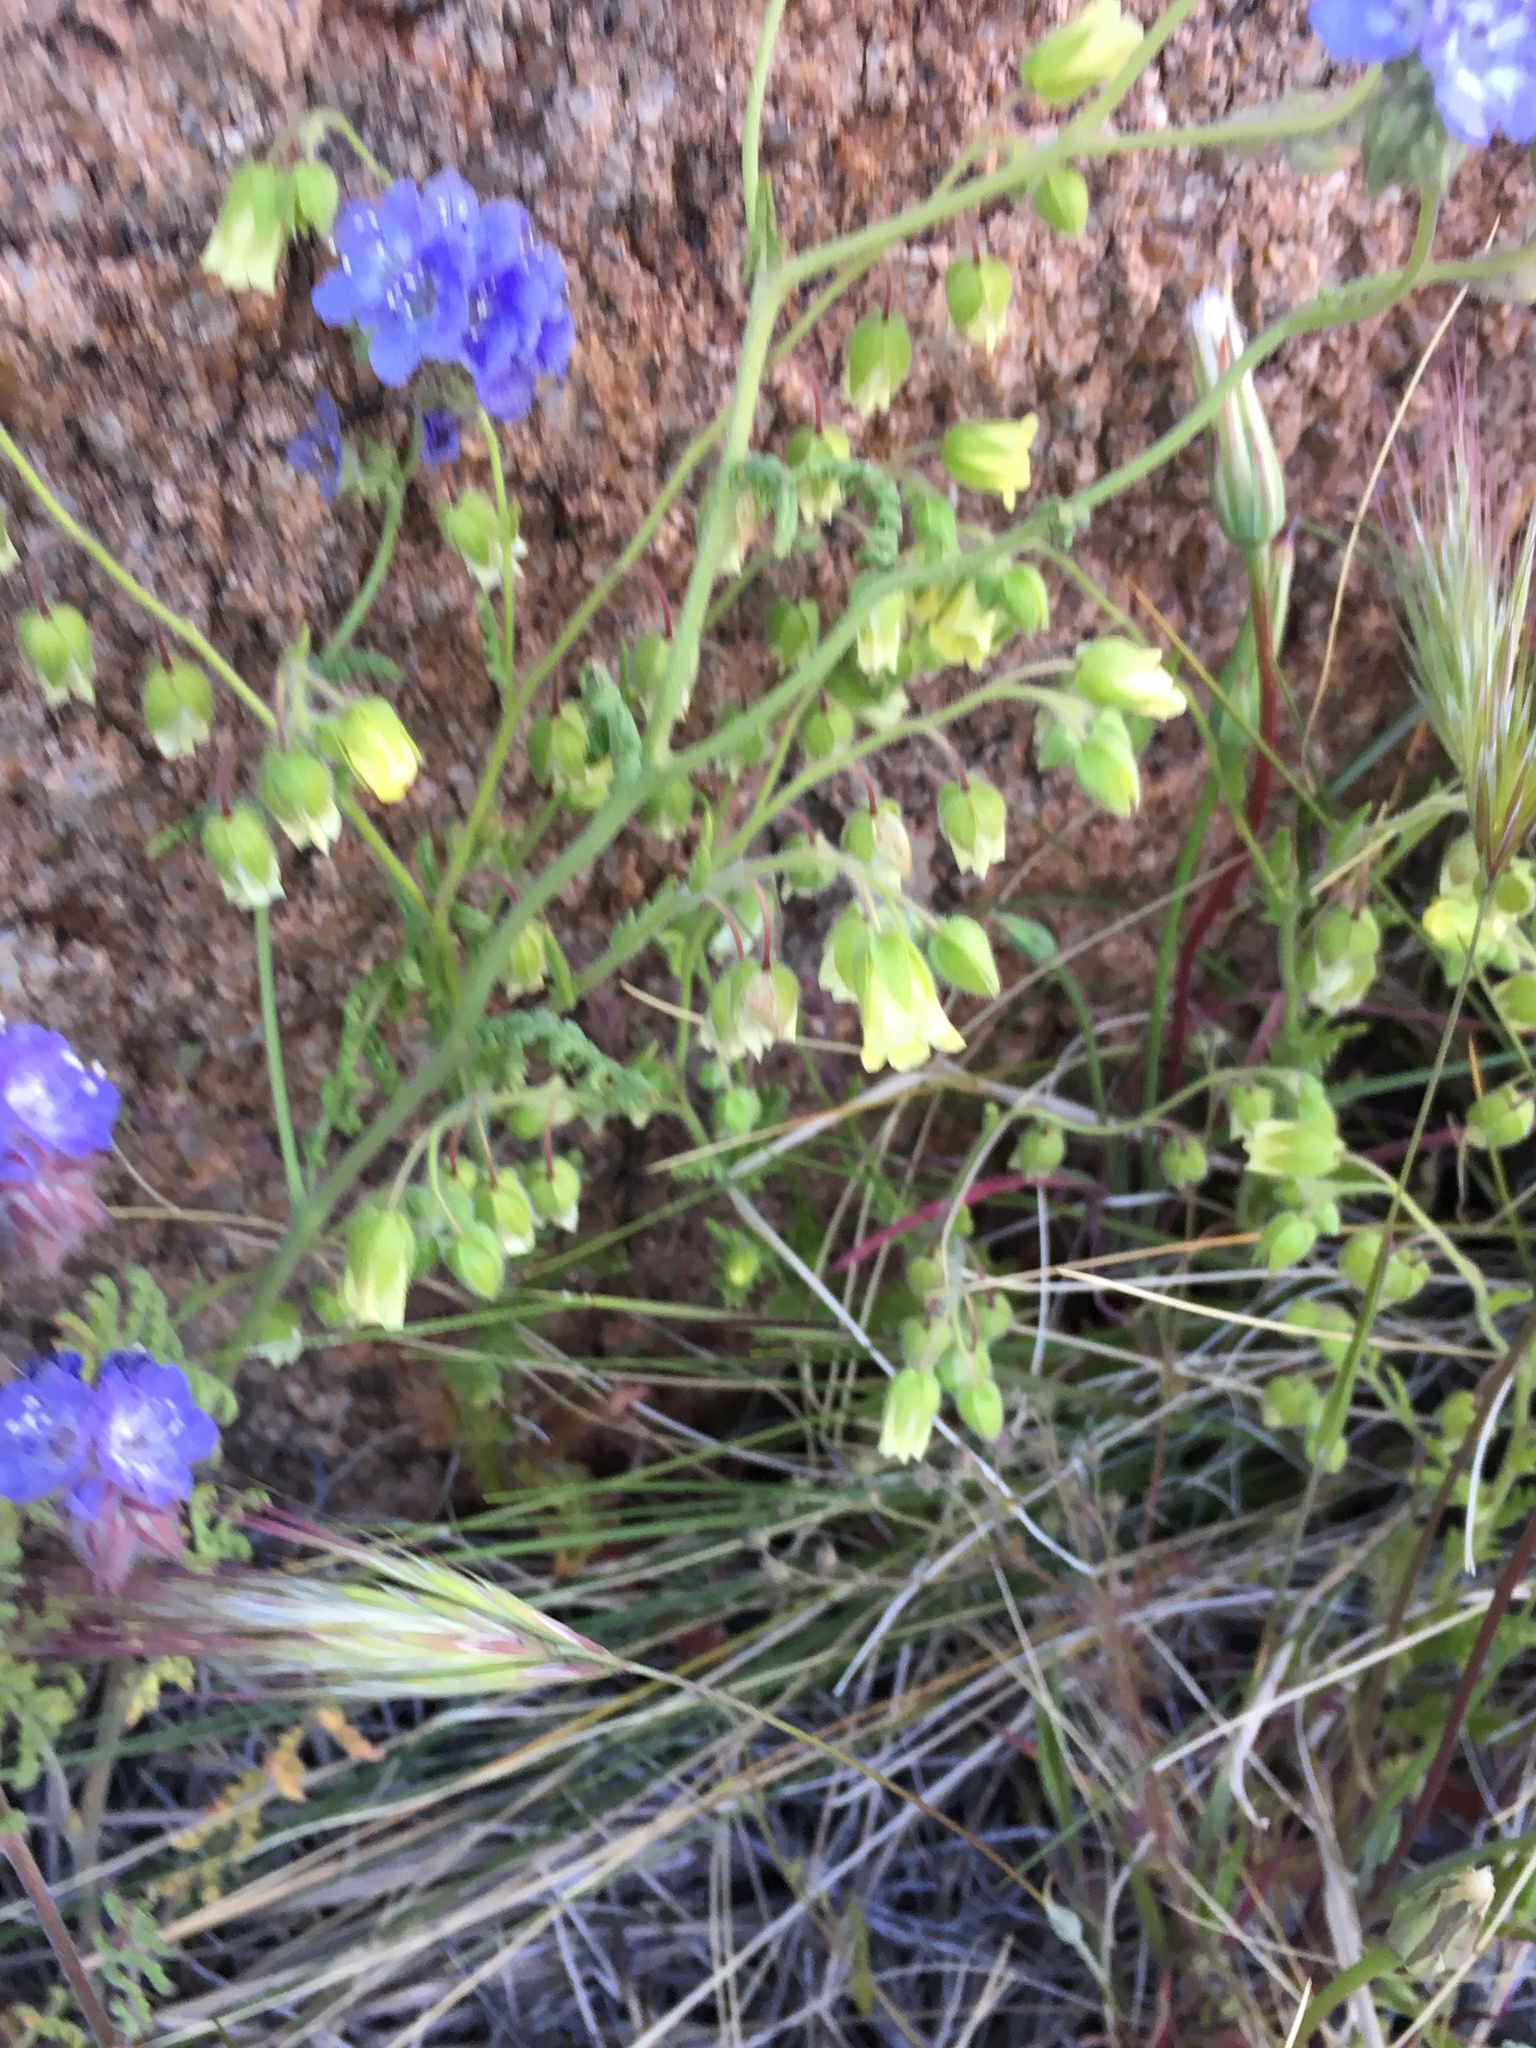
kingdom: Plantae
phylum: Tracheophyta
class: Magnoliopsida
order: Boraginales
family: Hydrophyllaceae
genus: Emmenanthe
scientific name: Emmenanthe penduliflora
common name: Whispering-bells
